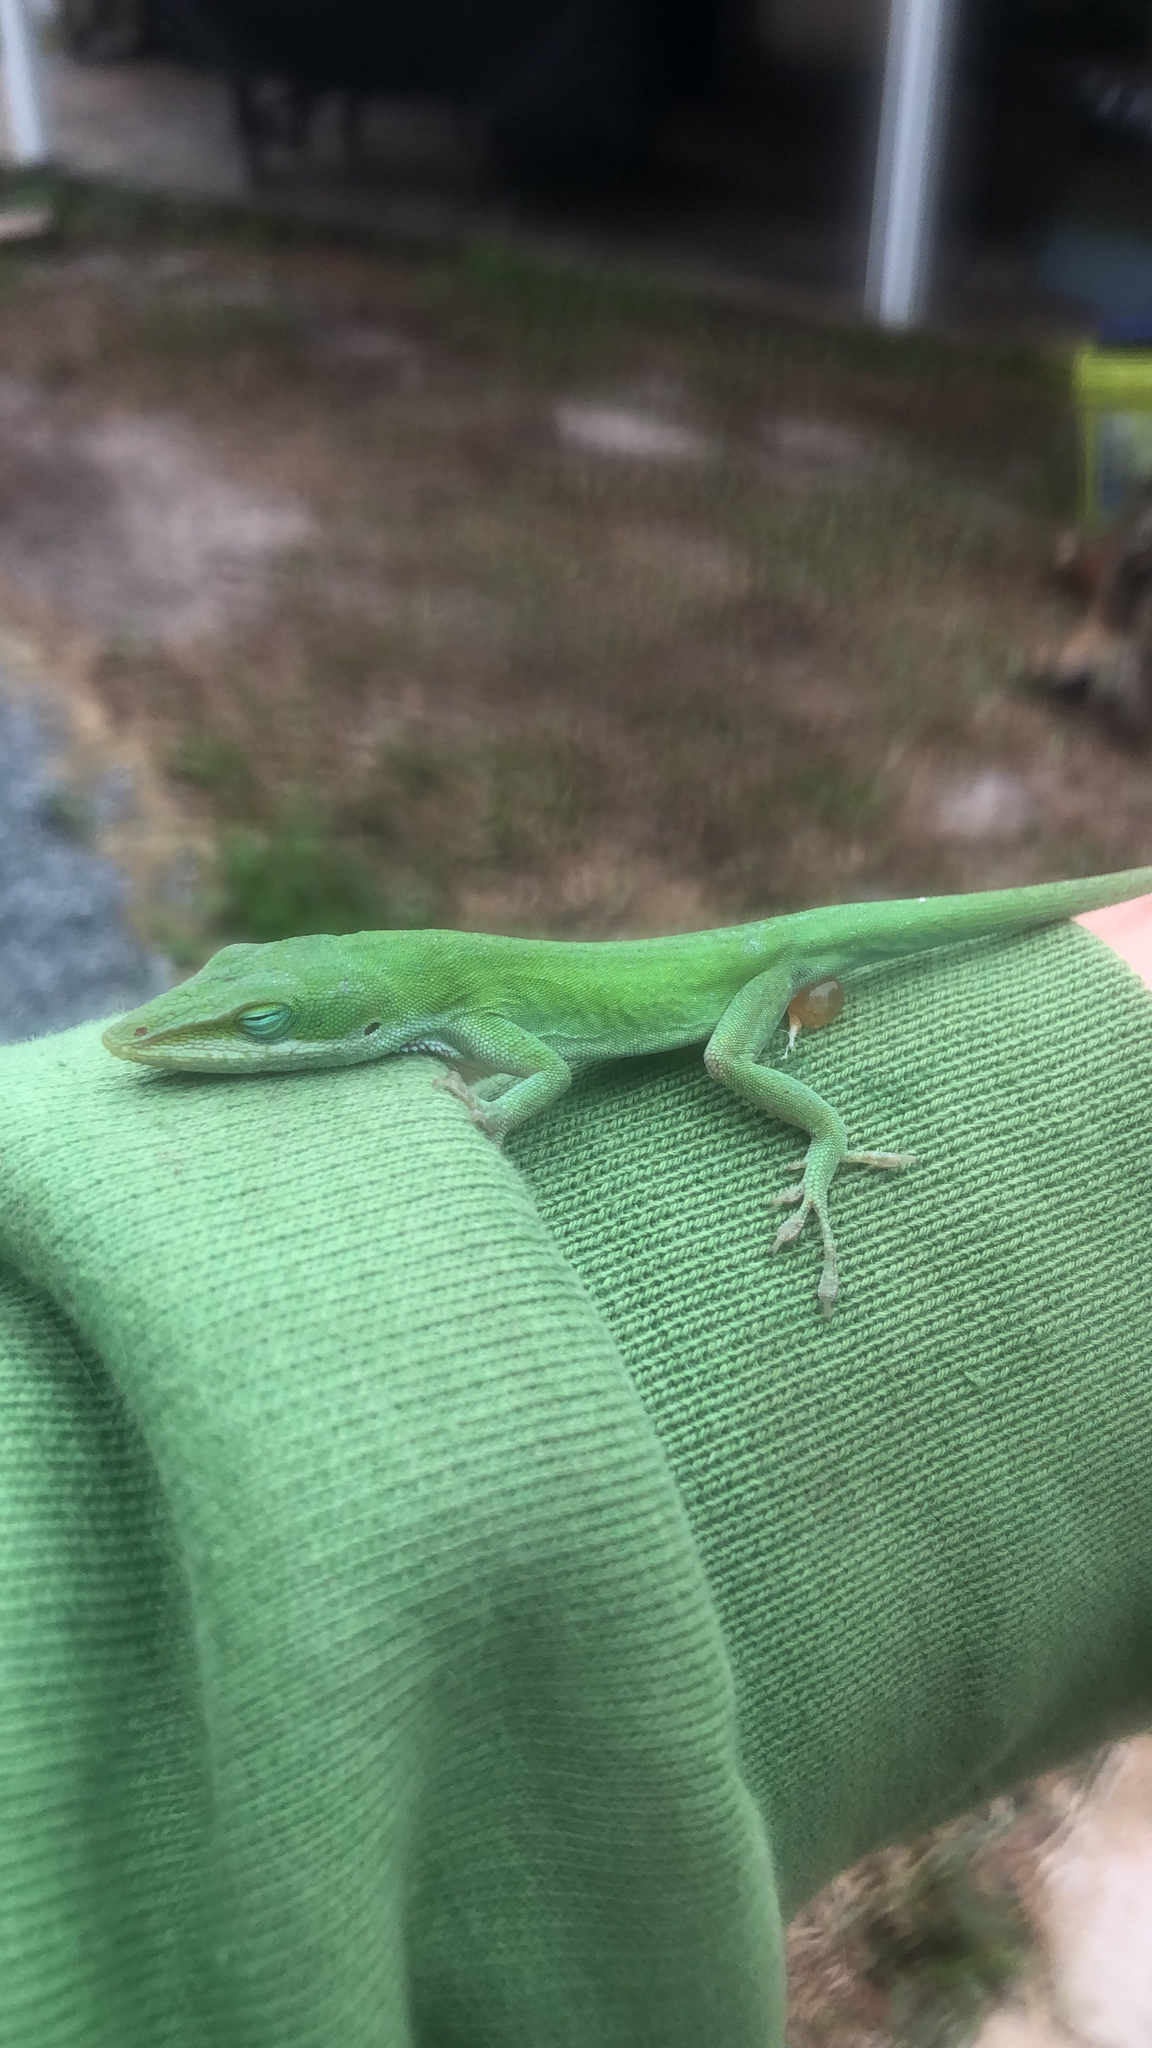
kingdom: Animalia
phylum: Chordata
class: Squamata
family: Dactyloidae
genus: Anolis
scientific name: Anolis carolinensis
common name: Green anole
